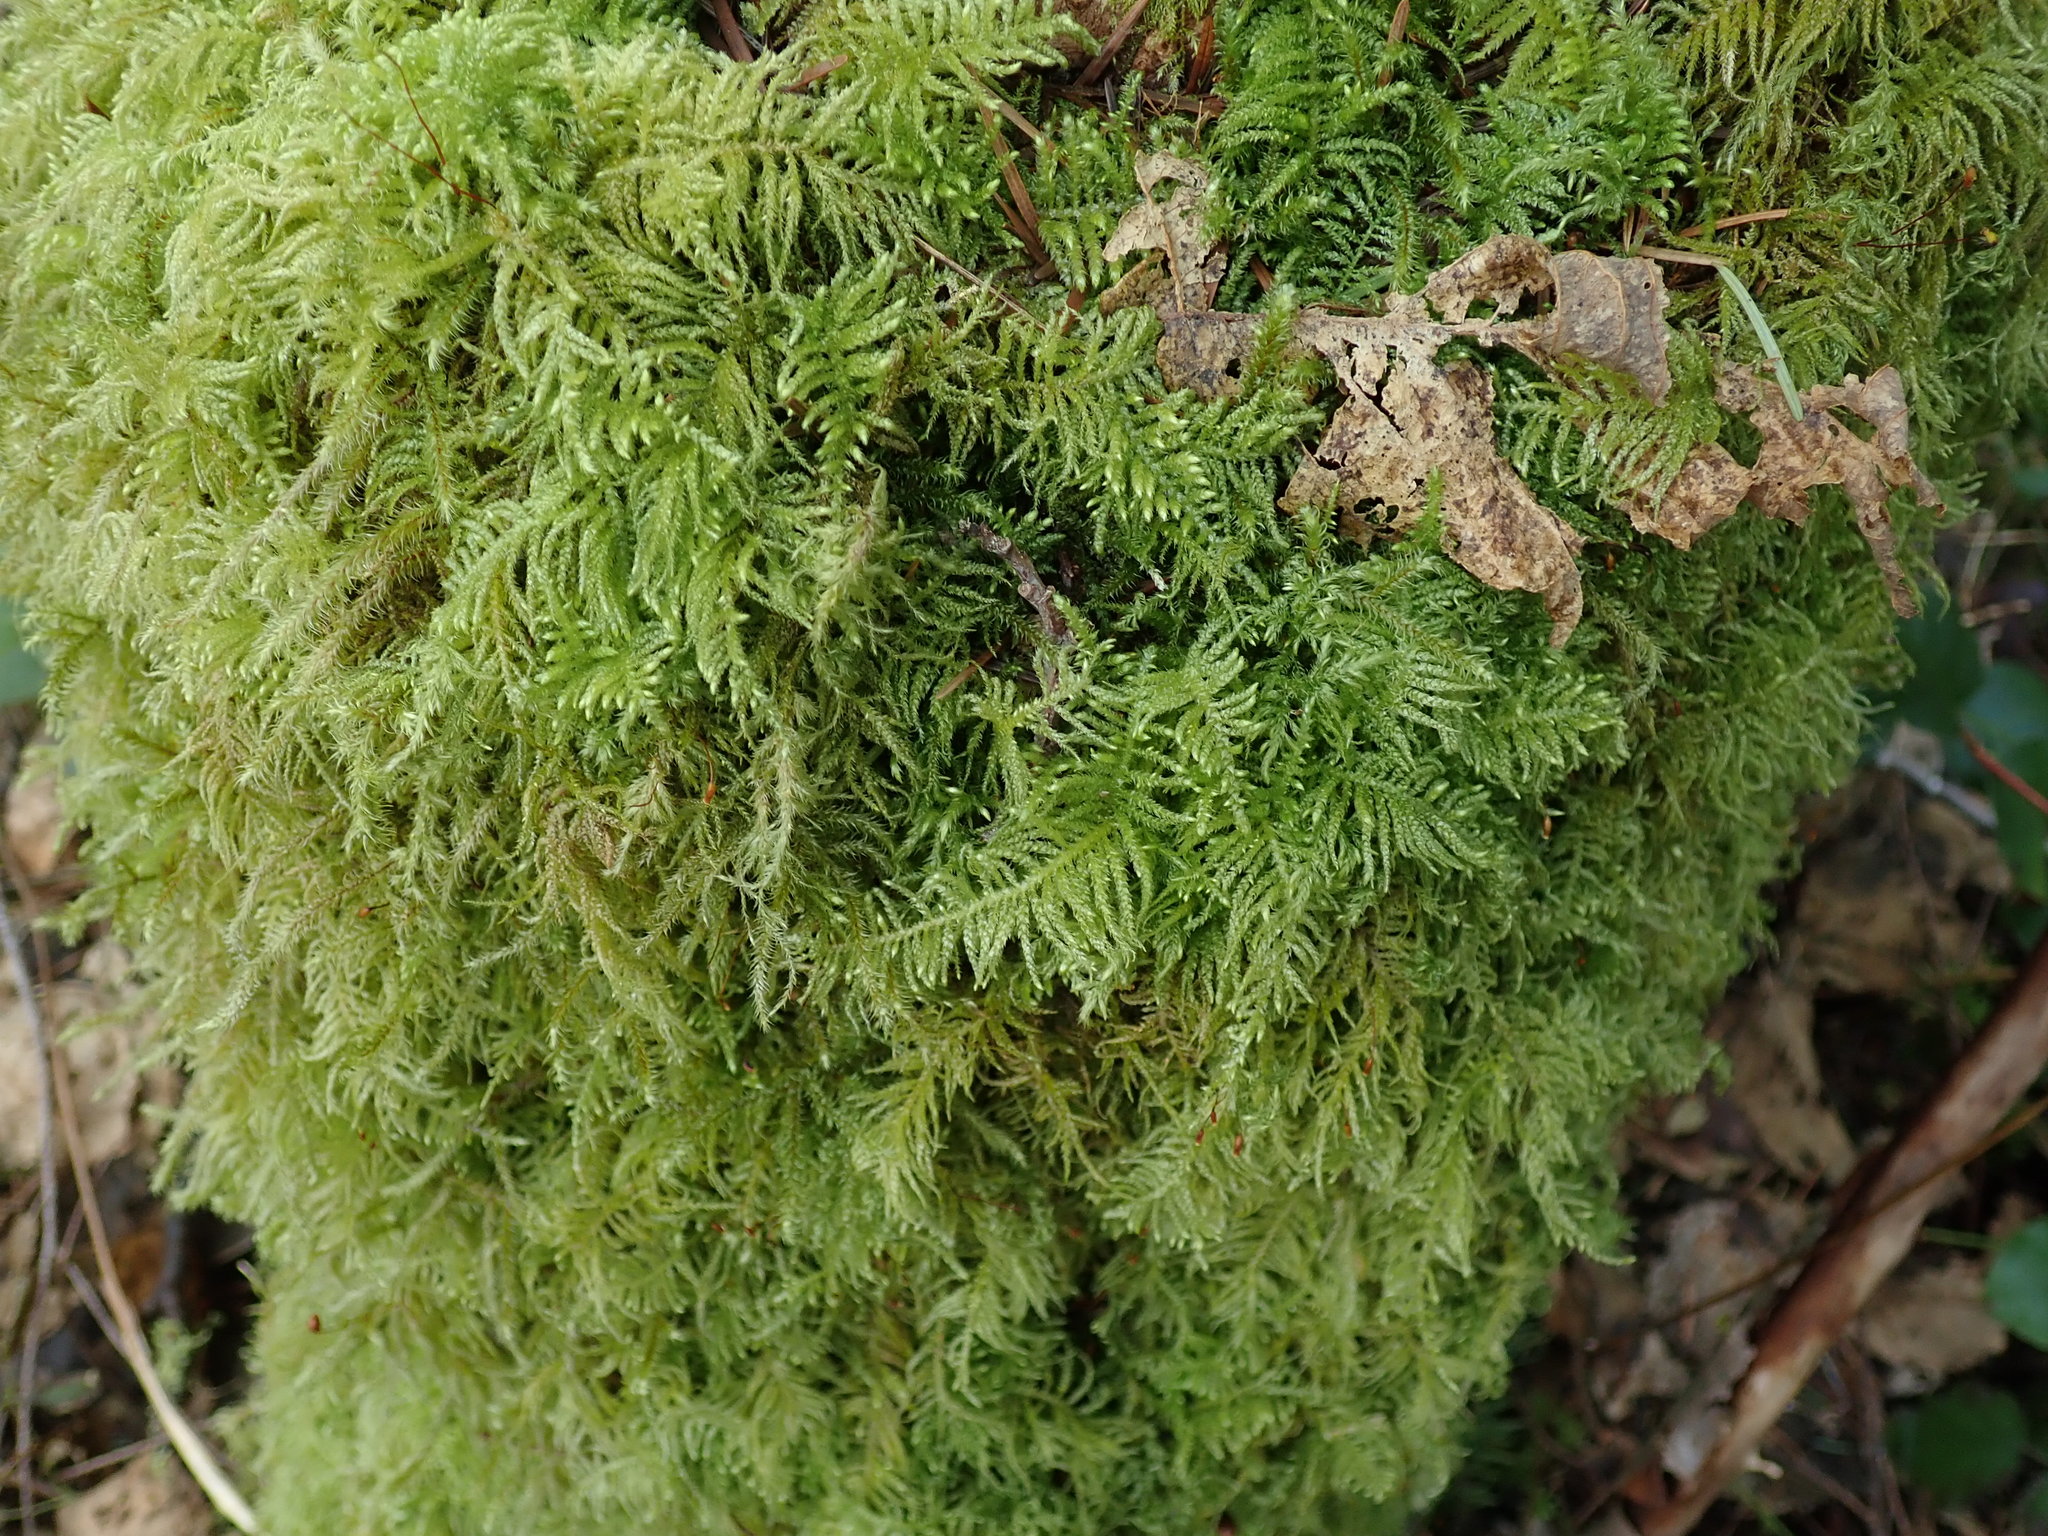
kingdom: Plantae
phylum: Bryophyta
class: Bryopsida
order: Hypnales
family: Brachytheciaceae
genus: Kindbergia
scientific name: Kindbergia oregana
